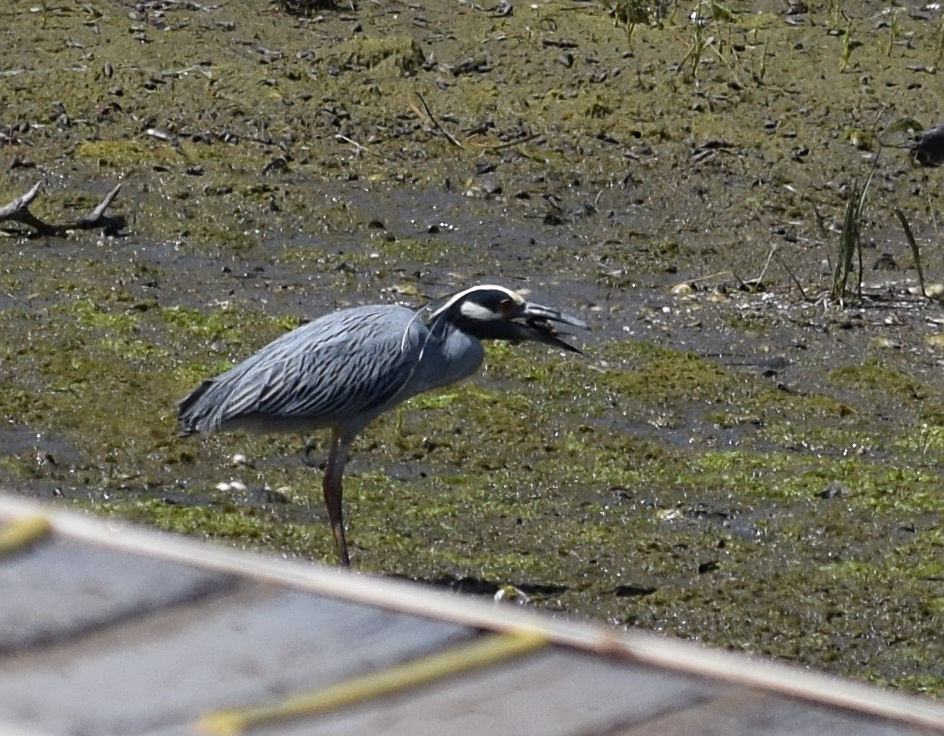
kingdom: Animalia
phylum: Chordata
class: Aves
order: Pelecaniformes
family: Ardeidae
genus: Nyctanassa
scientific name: Nyctanassa violacea
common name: Yellow-crowned night heron
